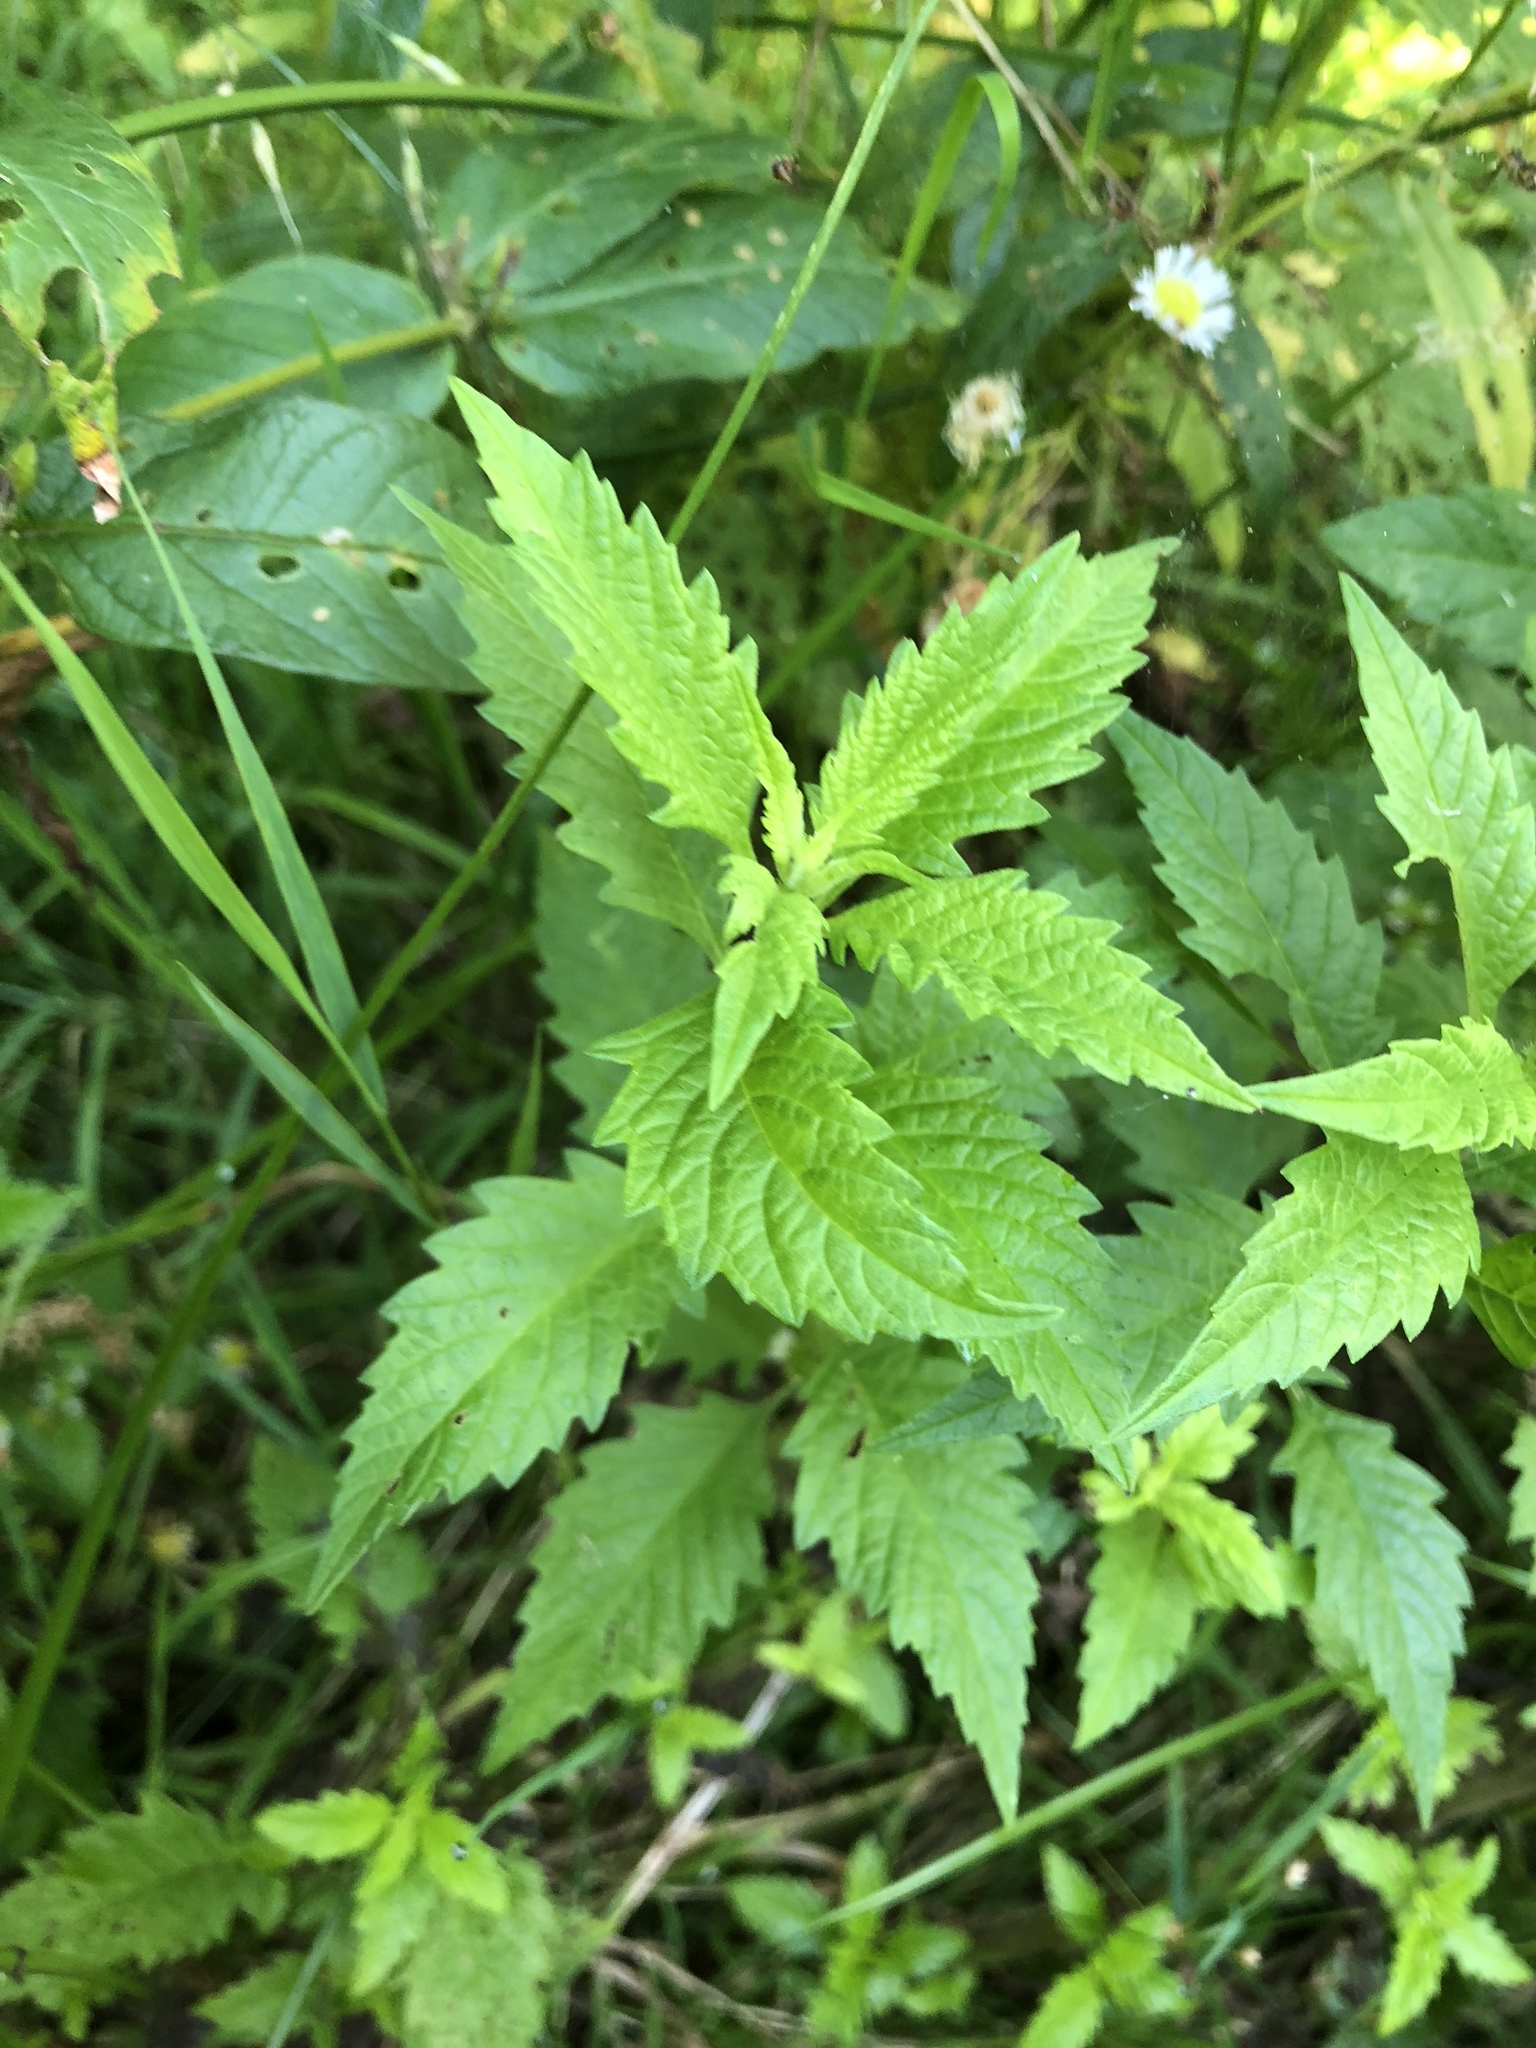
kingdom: Plantae
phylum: Tracheophyta
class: Magnoliopsida
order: Lamiales
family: Lamiaceae
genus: Lycopus
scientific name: Lycopus europaeus
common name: European bugleweed
